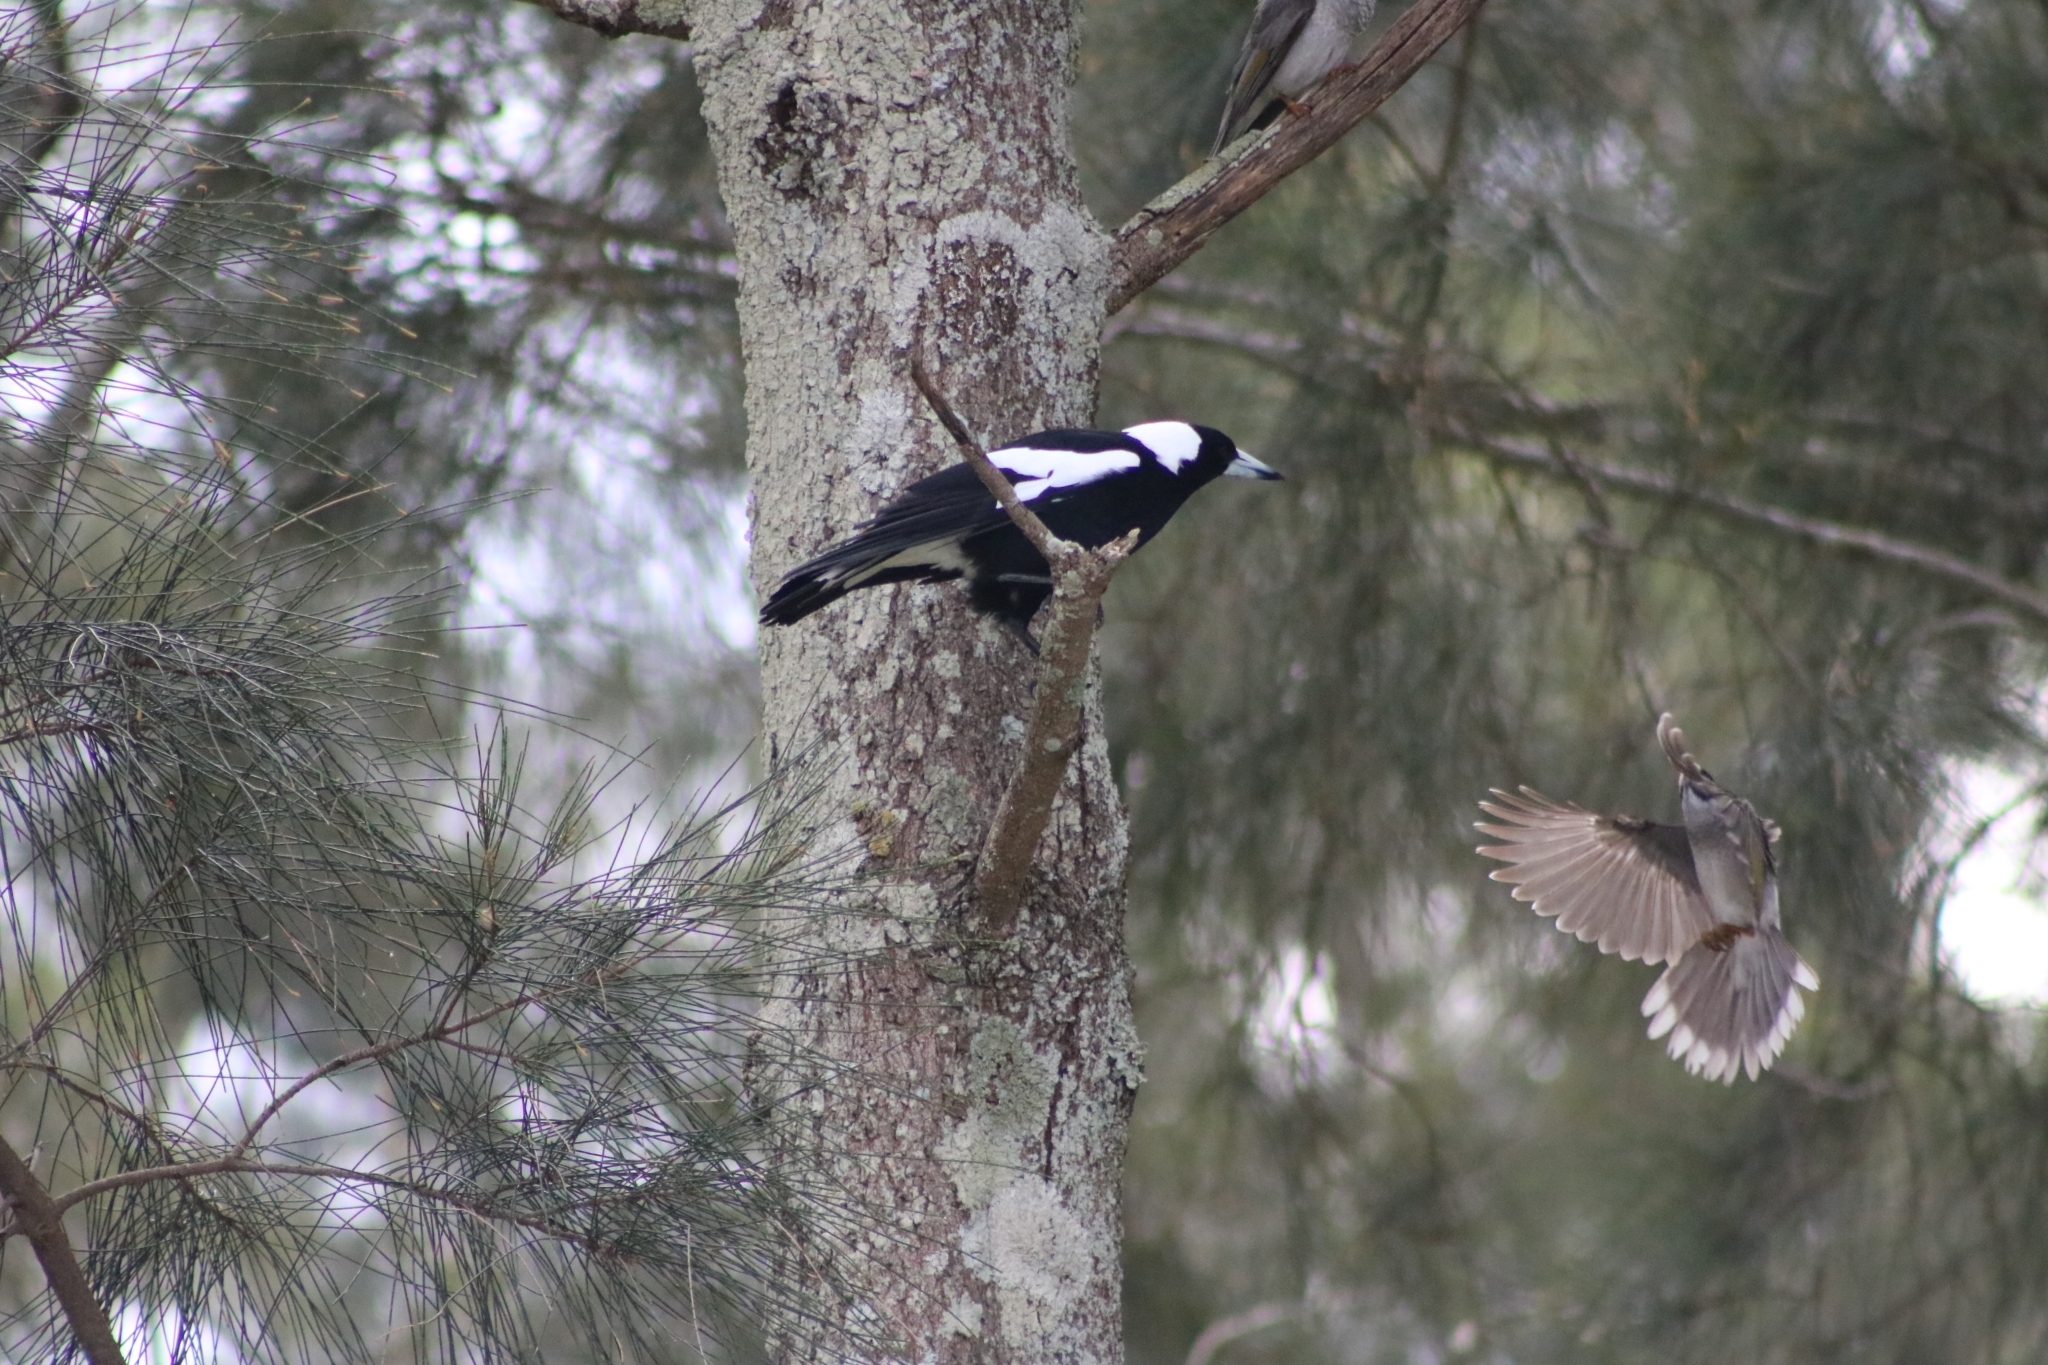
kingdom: Animalia
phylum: Chordata
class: Aves
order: Passeriformes
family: Cracticidae
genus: Gymnorhina
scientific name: Gymnorhina tibicen
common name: Australian magpie
